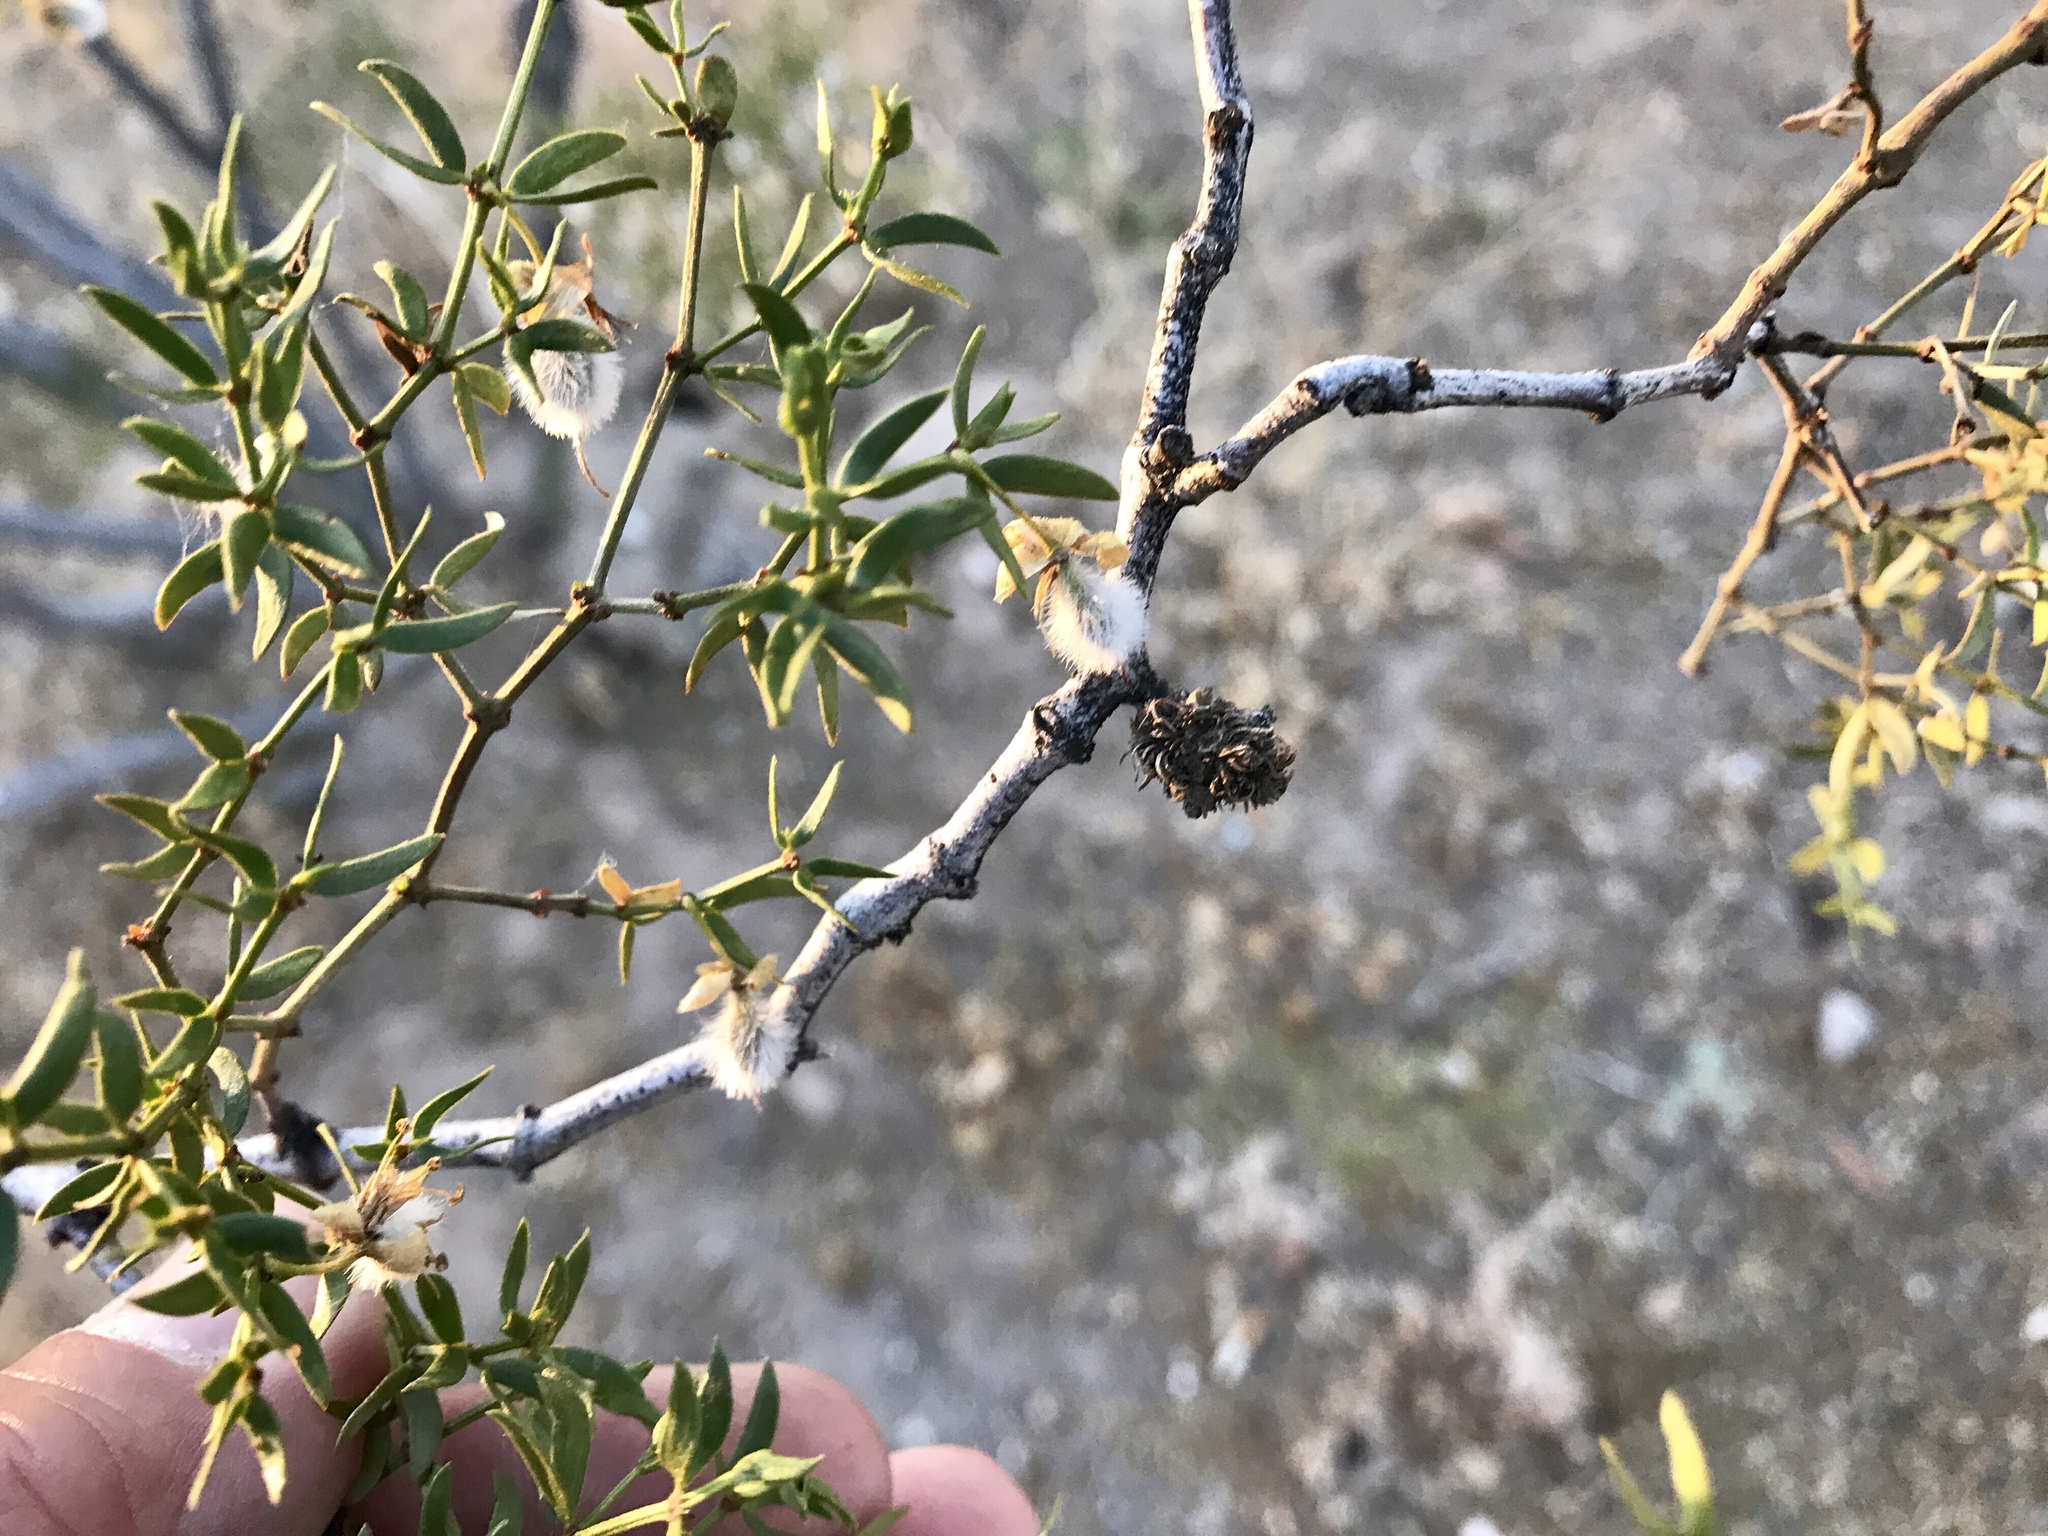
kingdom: Animalia
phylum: Arthropoda
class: Insecta
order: Diptera
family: Cecidomyiidae
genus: Asphondylia
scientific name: Asphondylia rosetta
